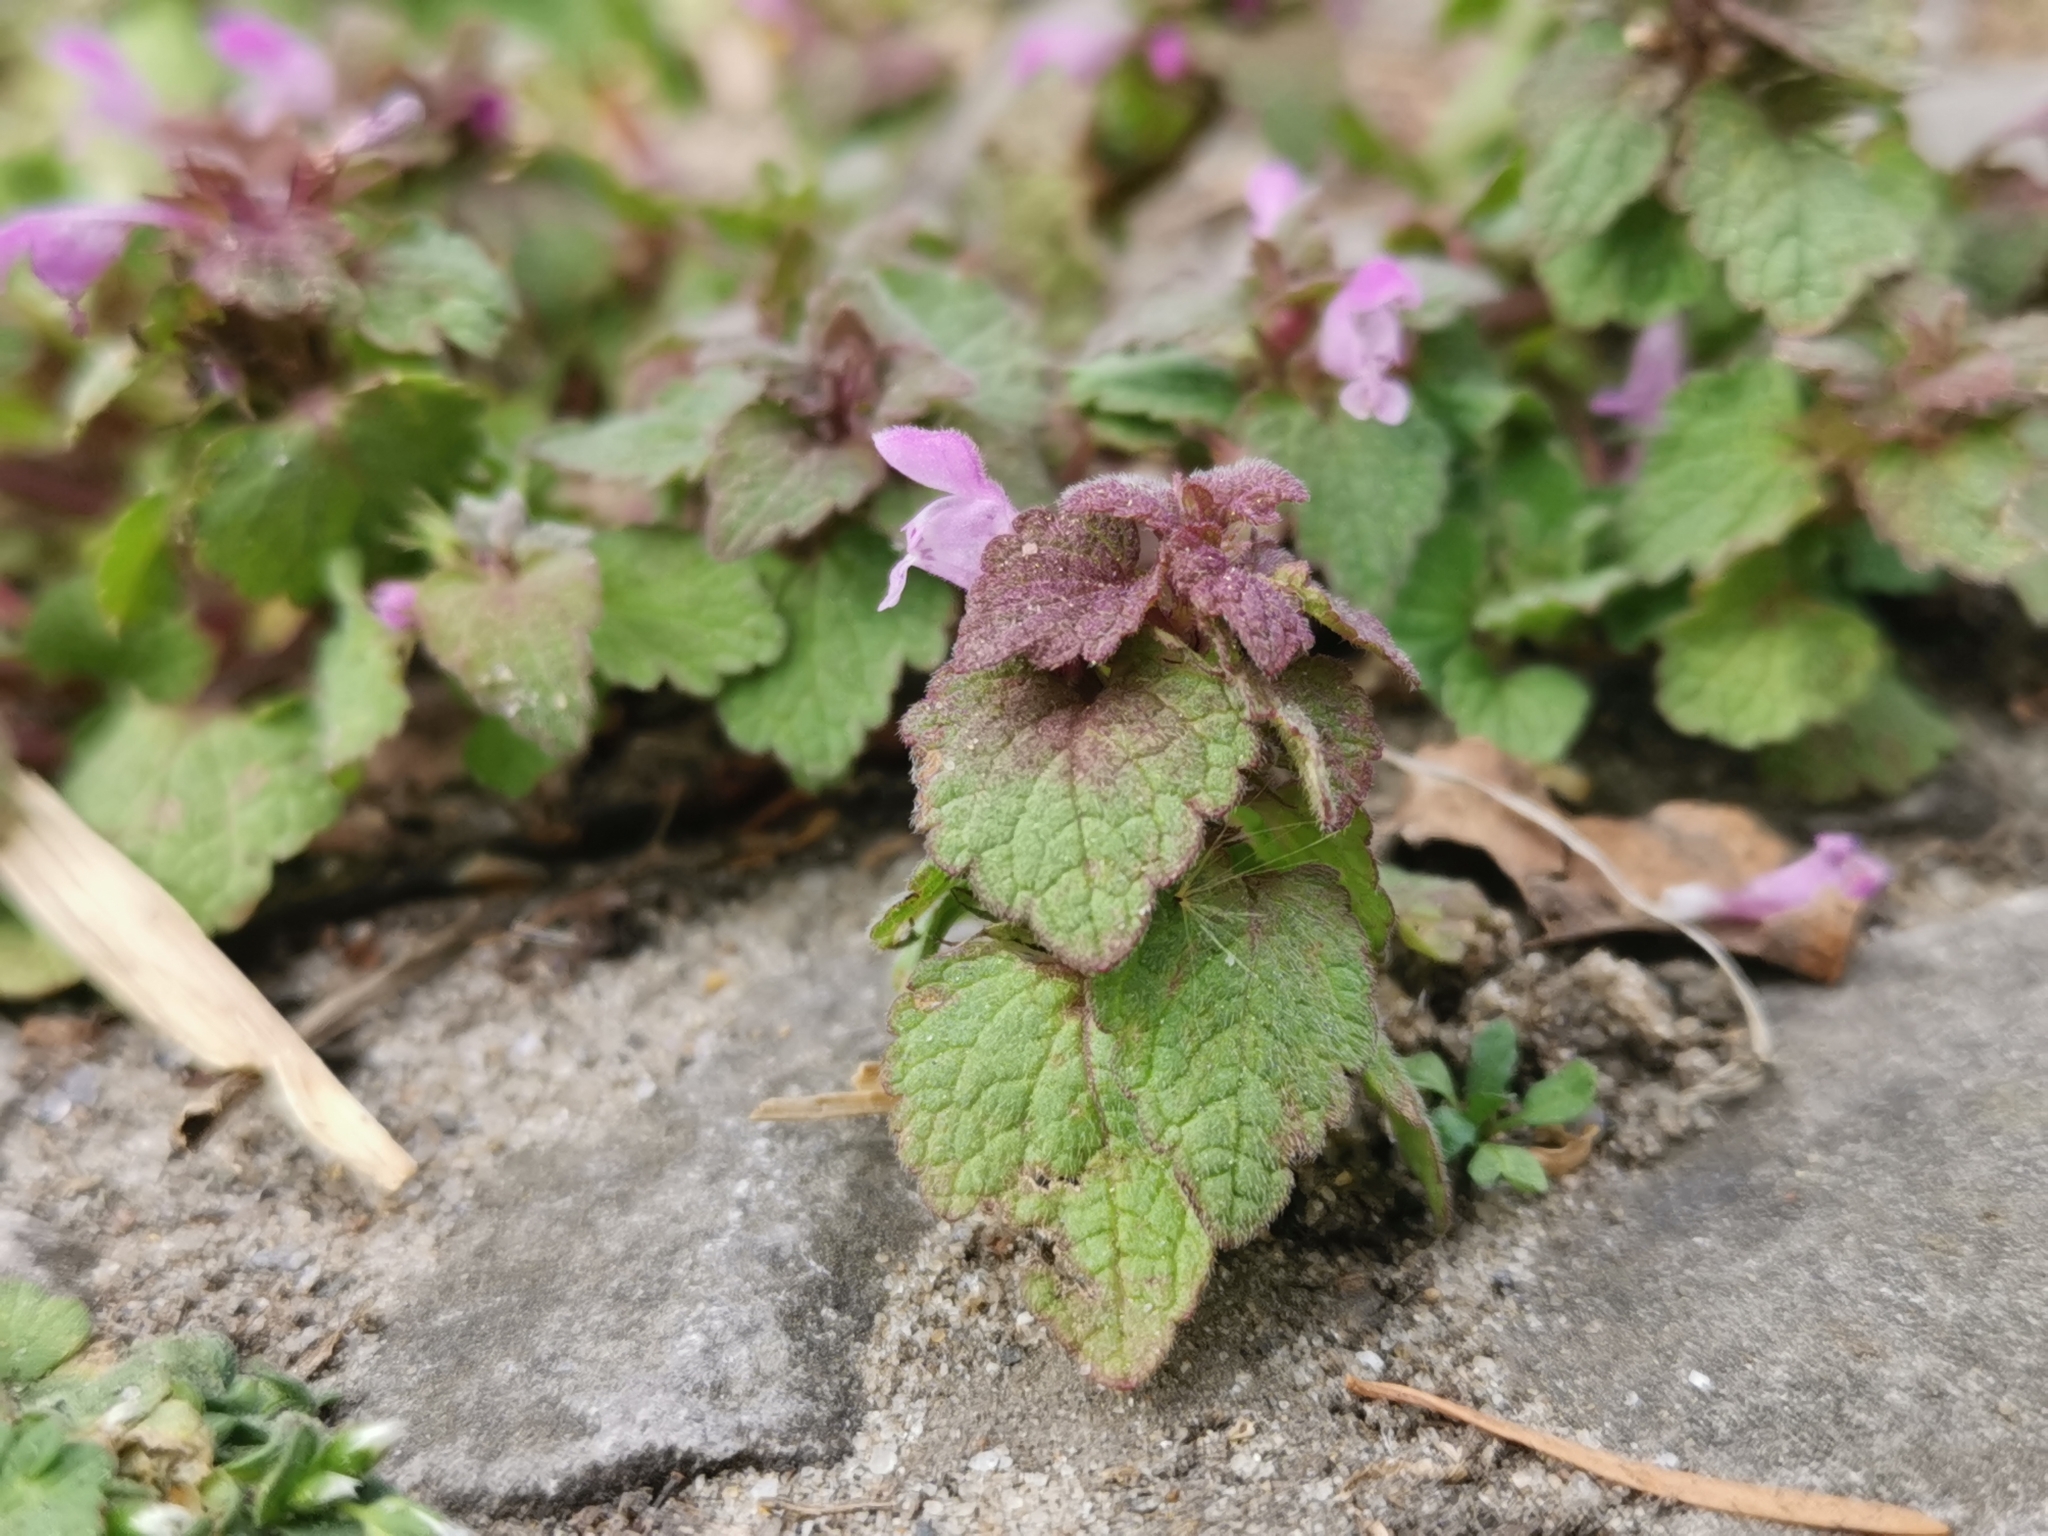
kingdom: Plantae
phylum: Tracheophyta
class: Magnoliopsida
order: Lamiales
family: Lamiaceae
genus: Lamium
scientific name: Lamium purpureum
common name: Red dead-nettle
